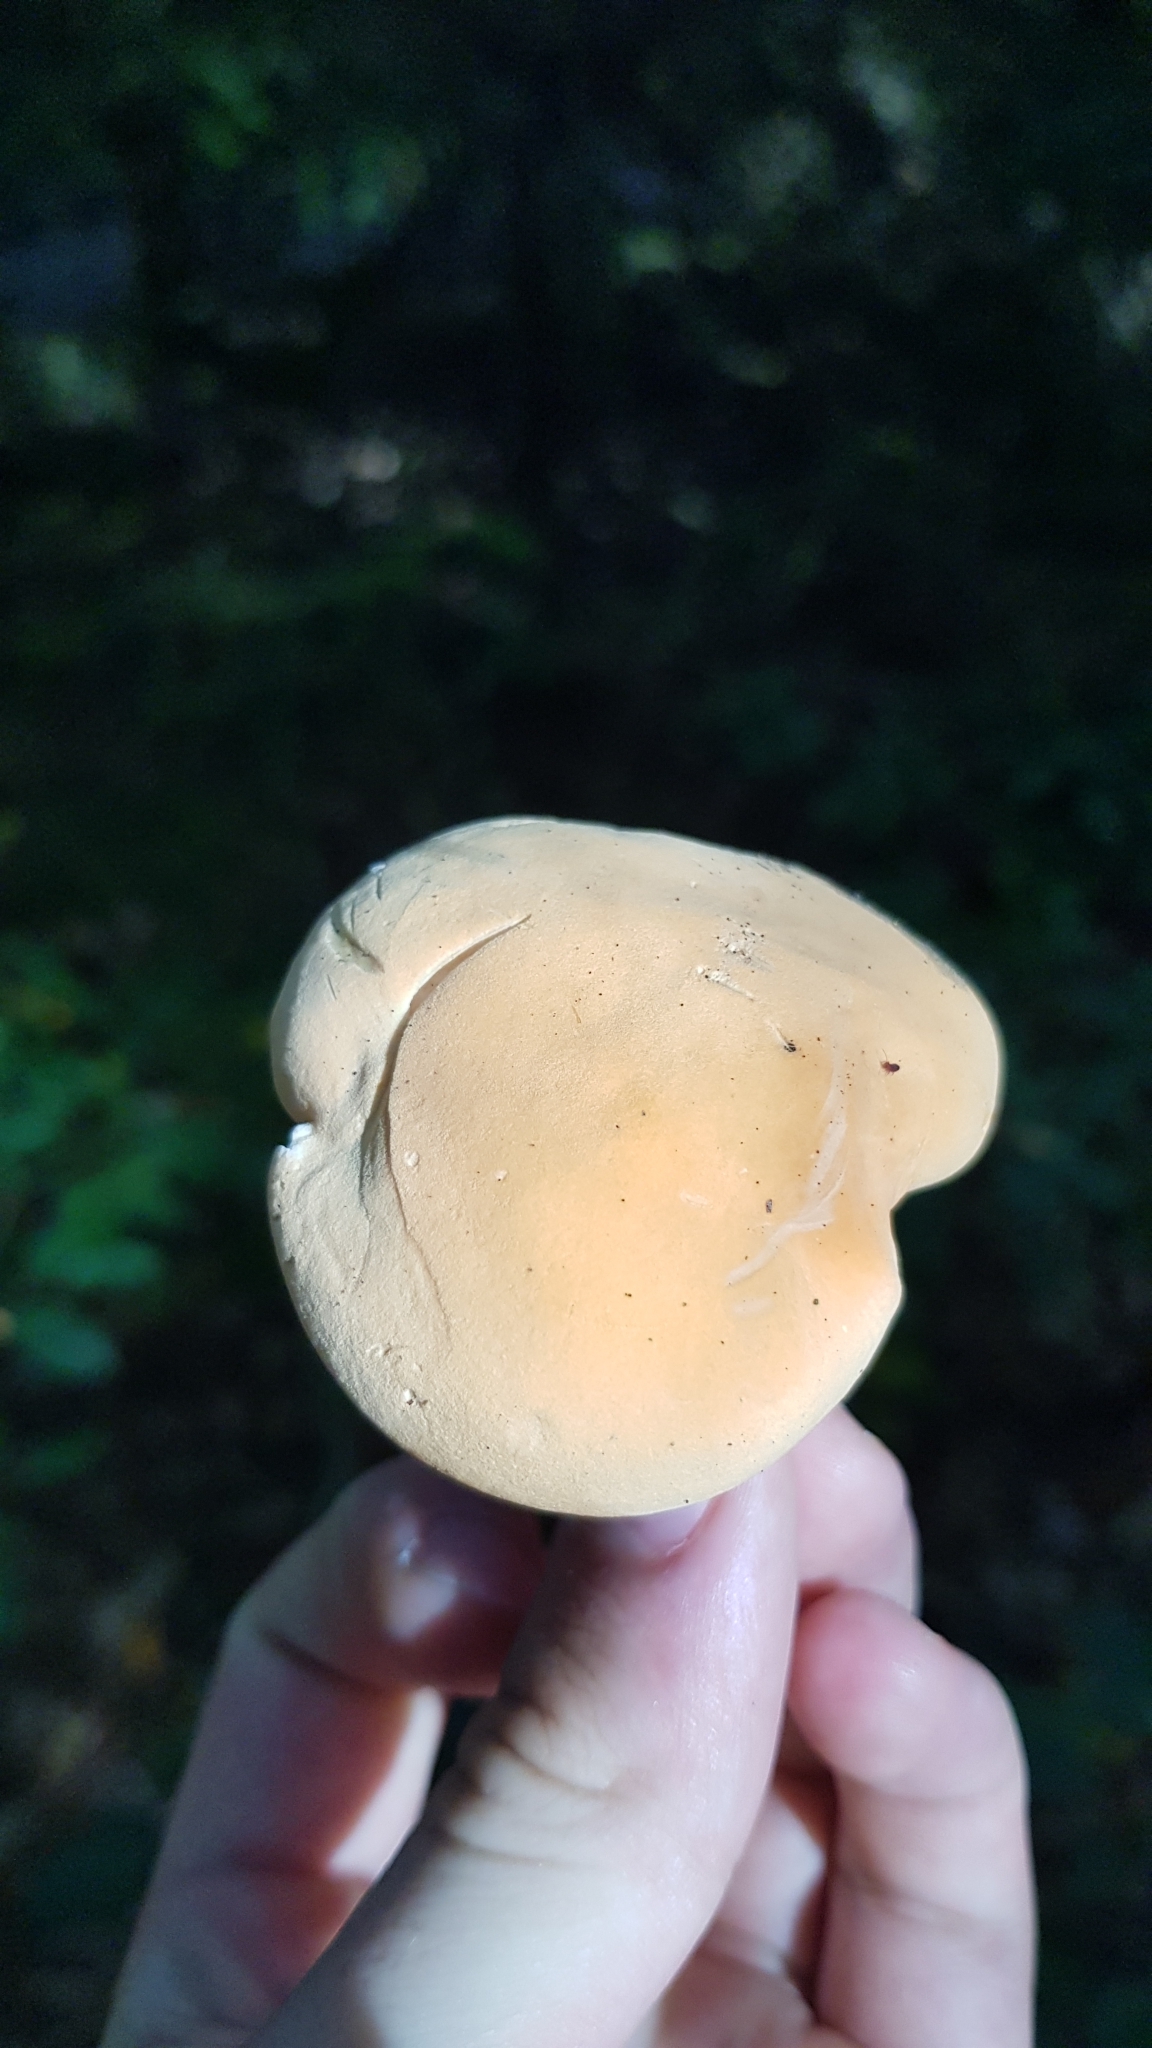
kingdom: Fungi
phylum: Basidiomycota
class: Agaricomycetes
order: Cantharellales
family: Hydnaceae
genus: Hydnum
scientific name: Hydnum repandum
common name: Wood hedgehog
